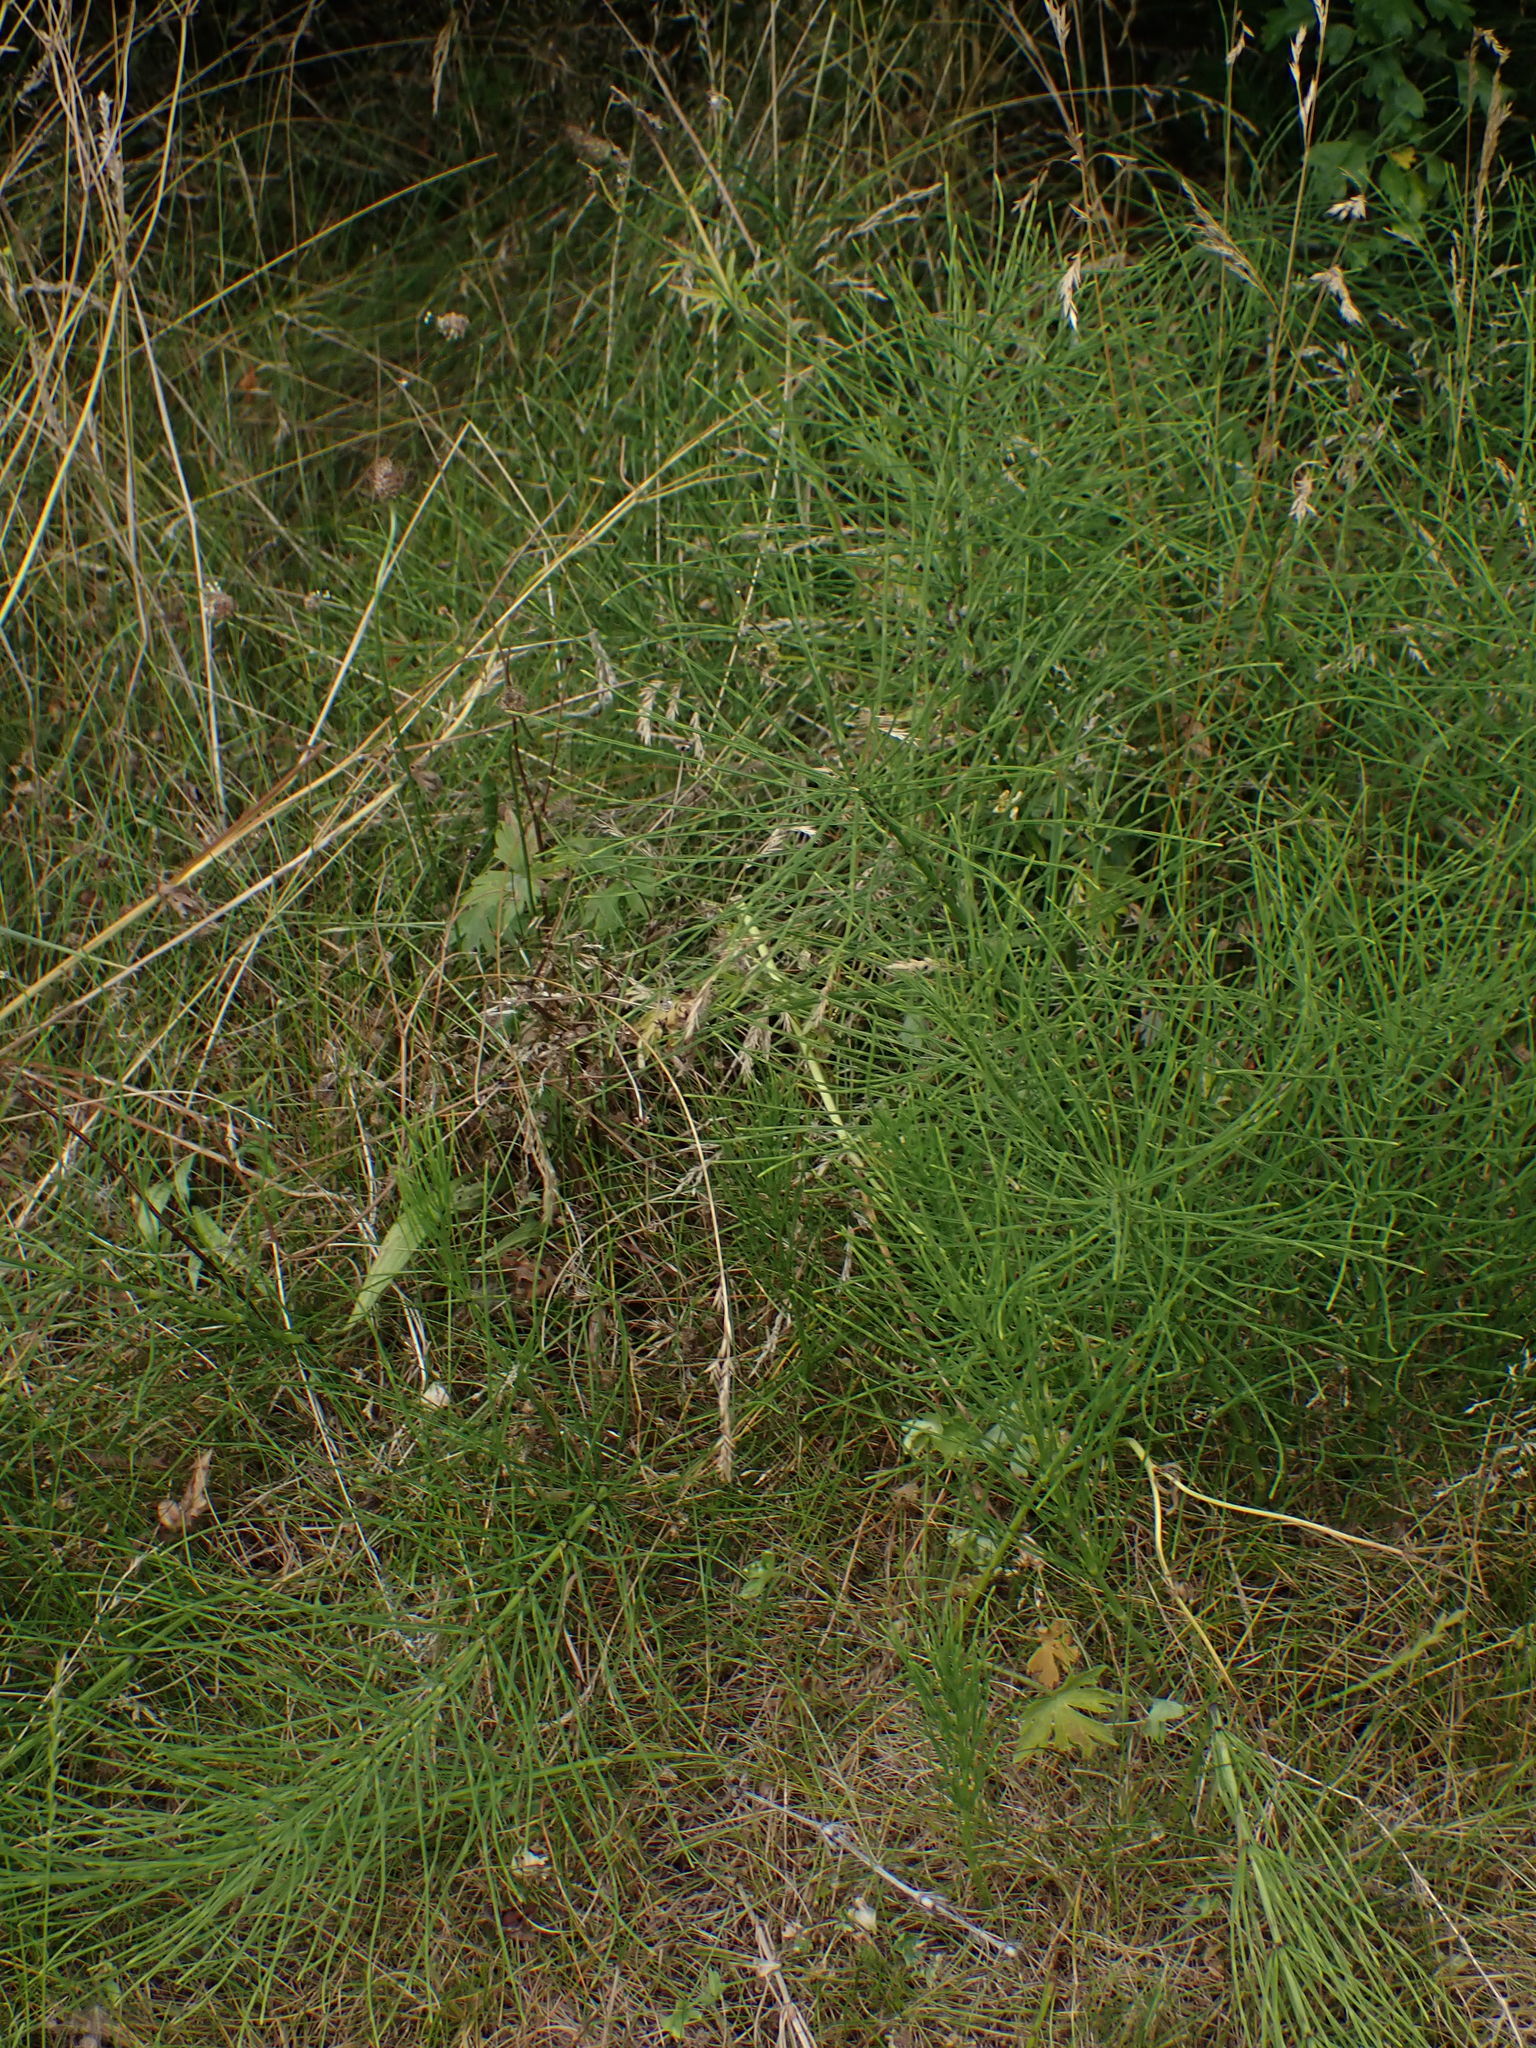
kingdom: Plantae
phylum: Tracheophyta
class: Polypodiopsida
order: Equisetales
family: Equisetaceae
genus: Equisetum
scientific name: Equisetum arvense
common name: Field horsetail
